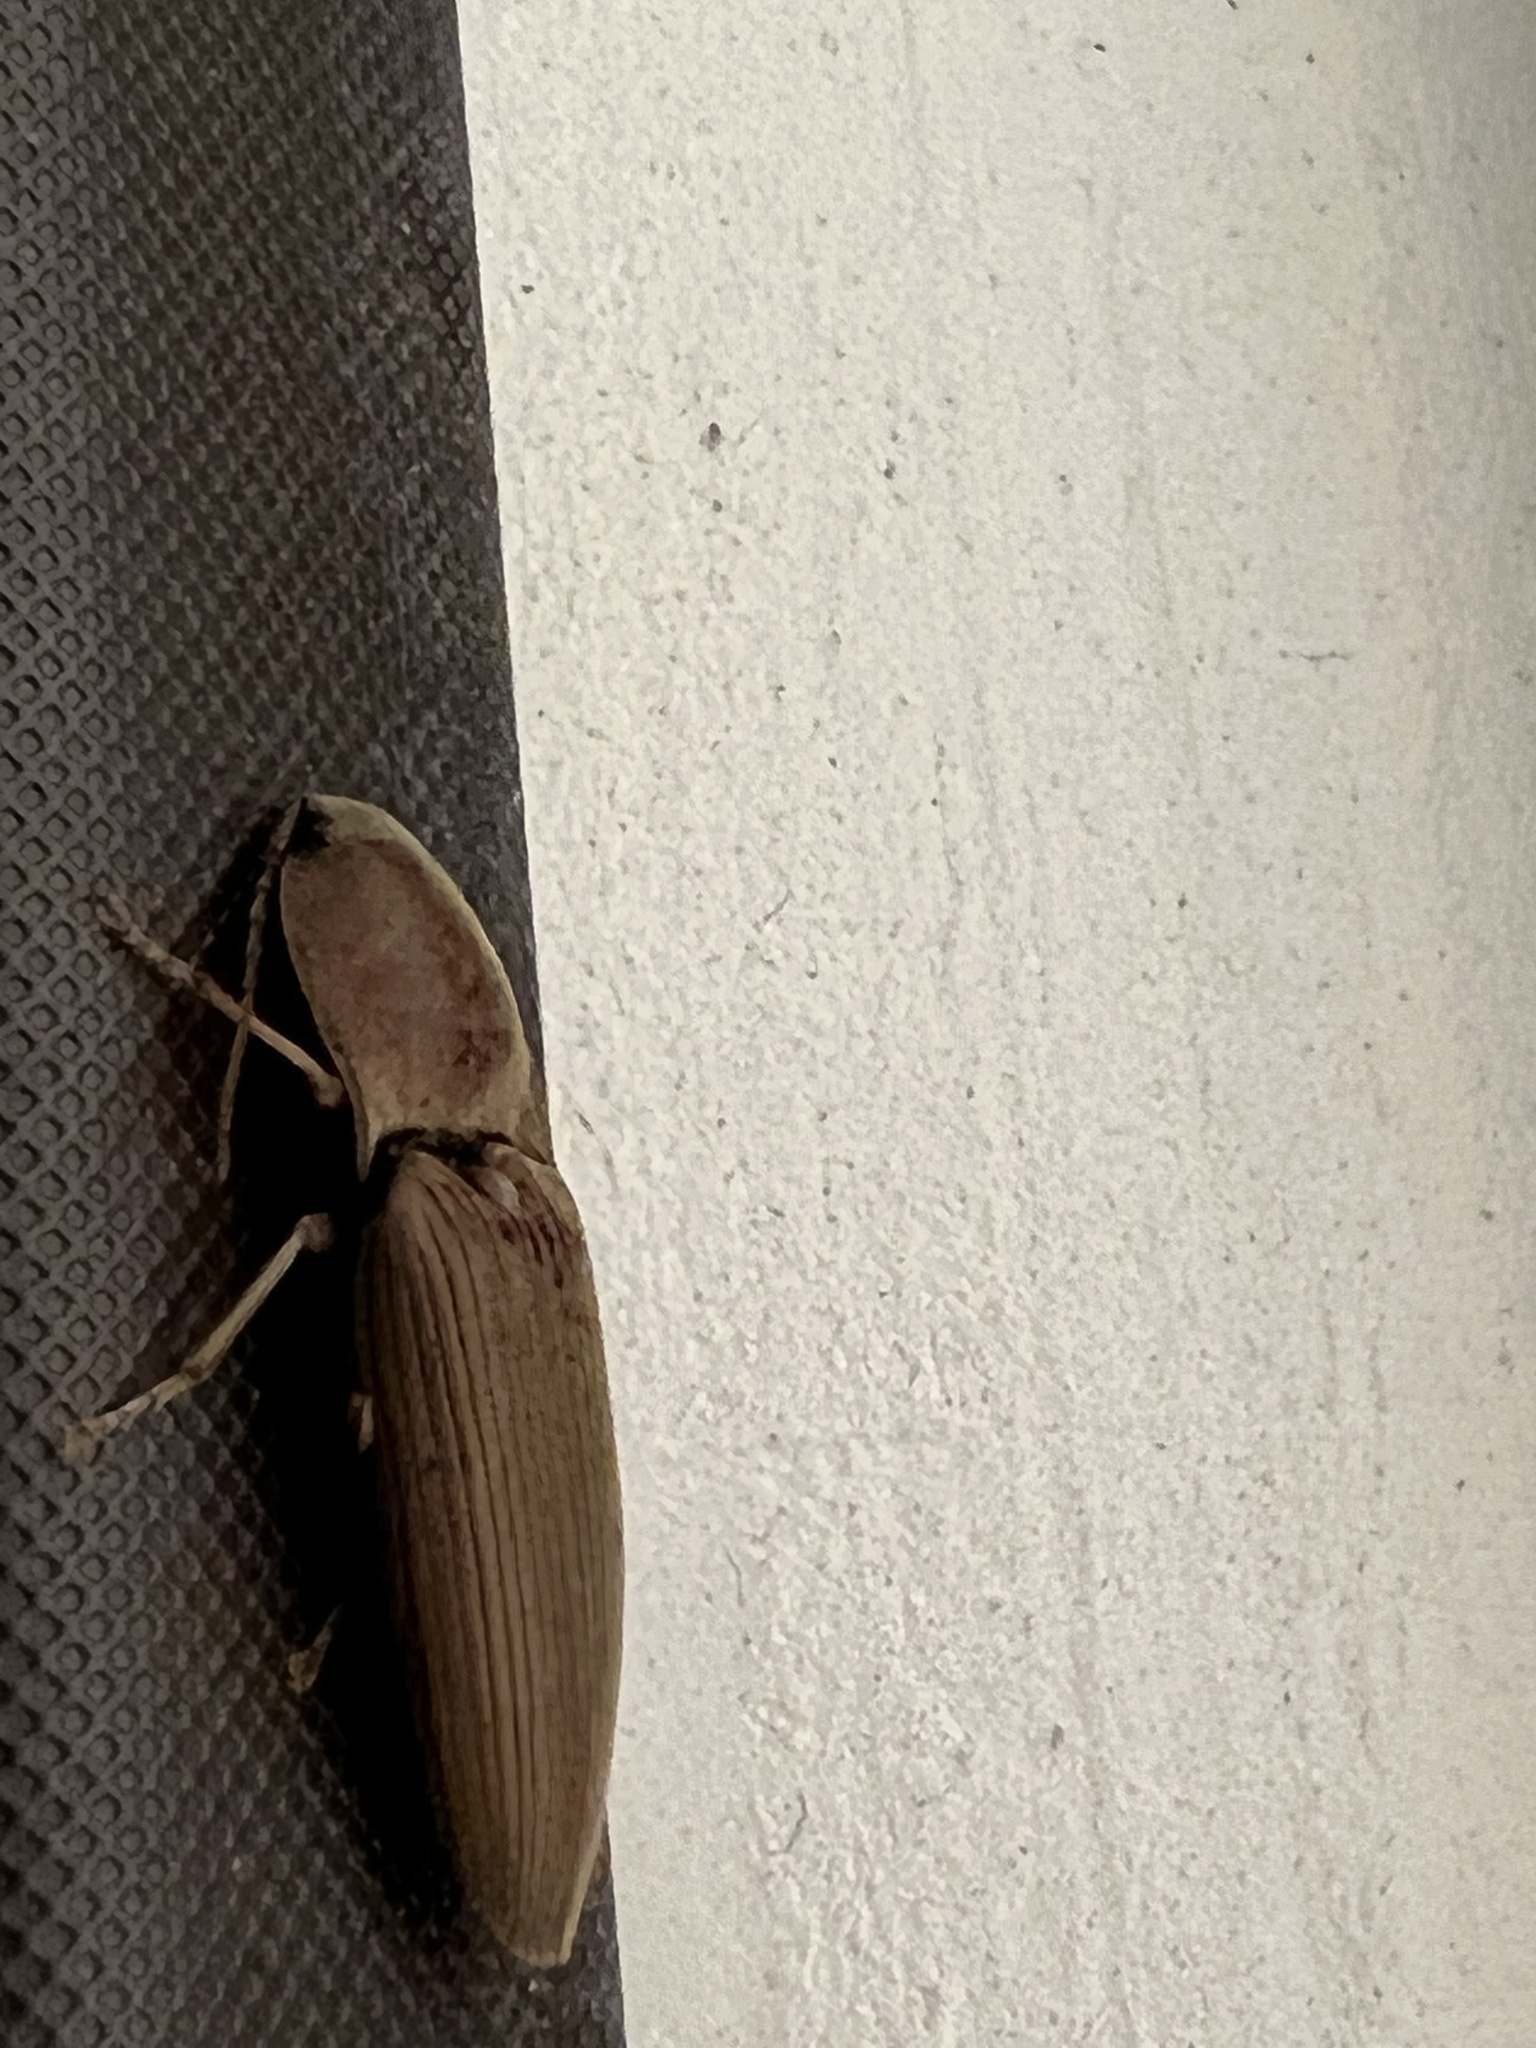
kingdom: Animalia
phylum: Arthropoda
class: Insecta
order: Coleoptera
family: Elateridae
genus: Monocrepidius
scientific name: Monocrepidius lividus
